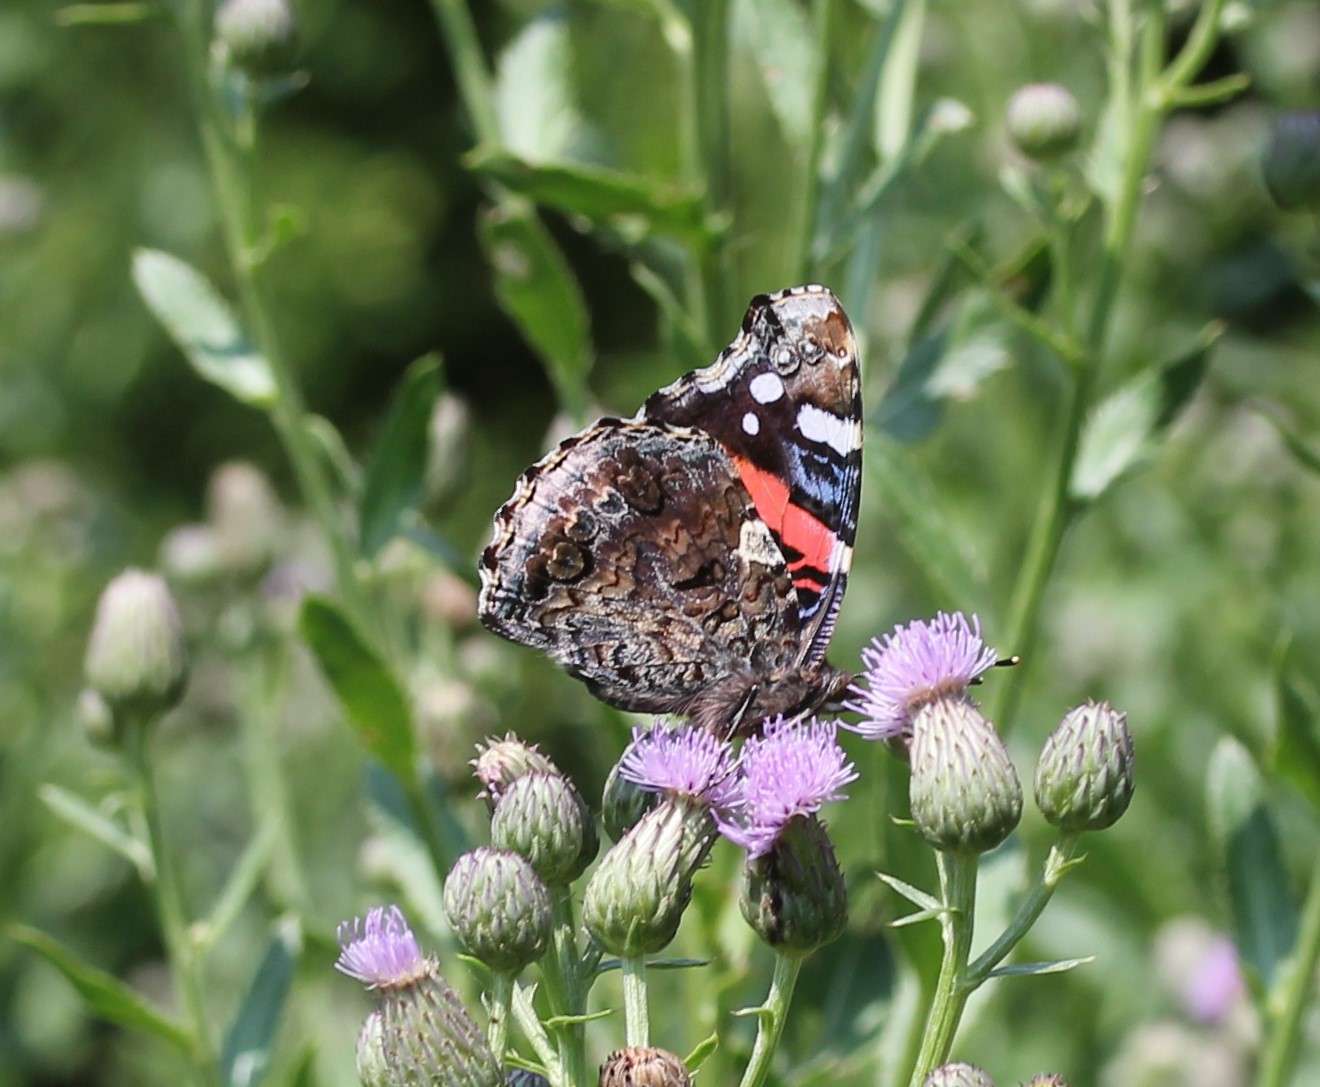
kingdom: Animalia
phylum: Arthropoda
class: Insecta
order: Lepidoptera
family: Nymphalidae
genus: Vanessa
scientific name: Vanessa atalanta
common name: Red admiral
